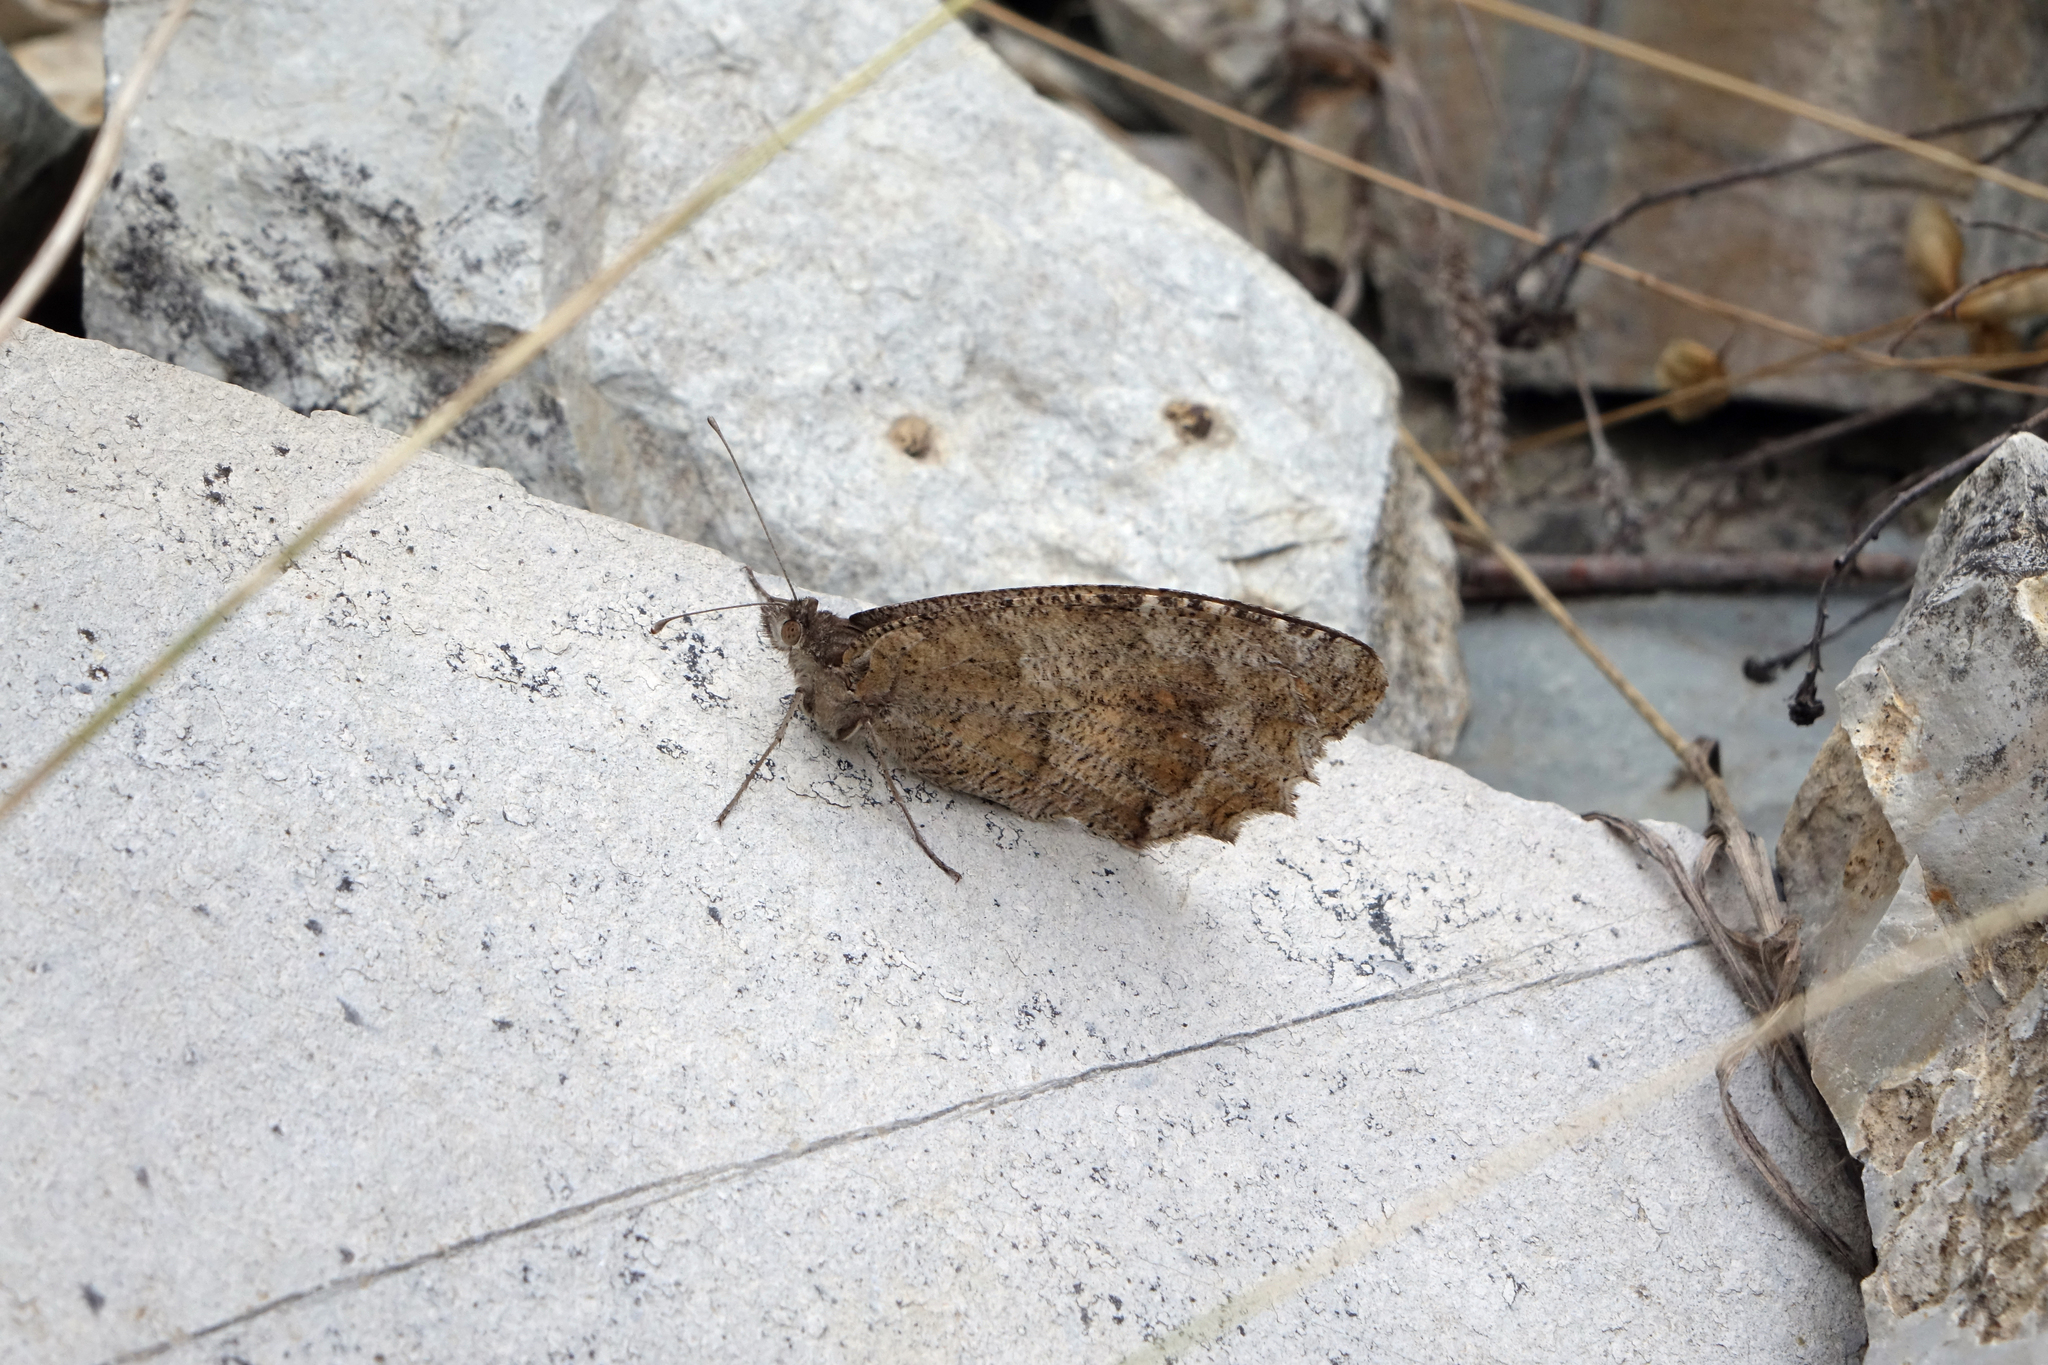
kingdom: Animalia
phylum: Arthropoda
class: Insecta
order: Lepidoptera
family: Nymphalidae
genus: Pseudochazara
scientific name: Pseudochazara pelopea
